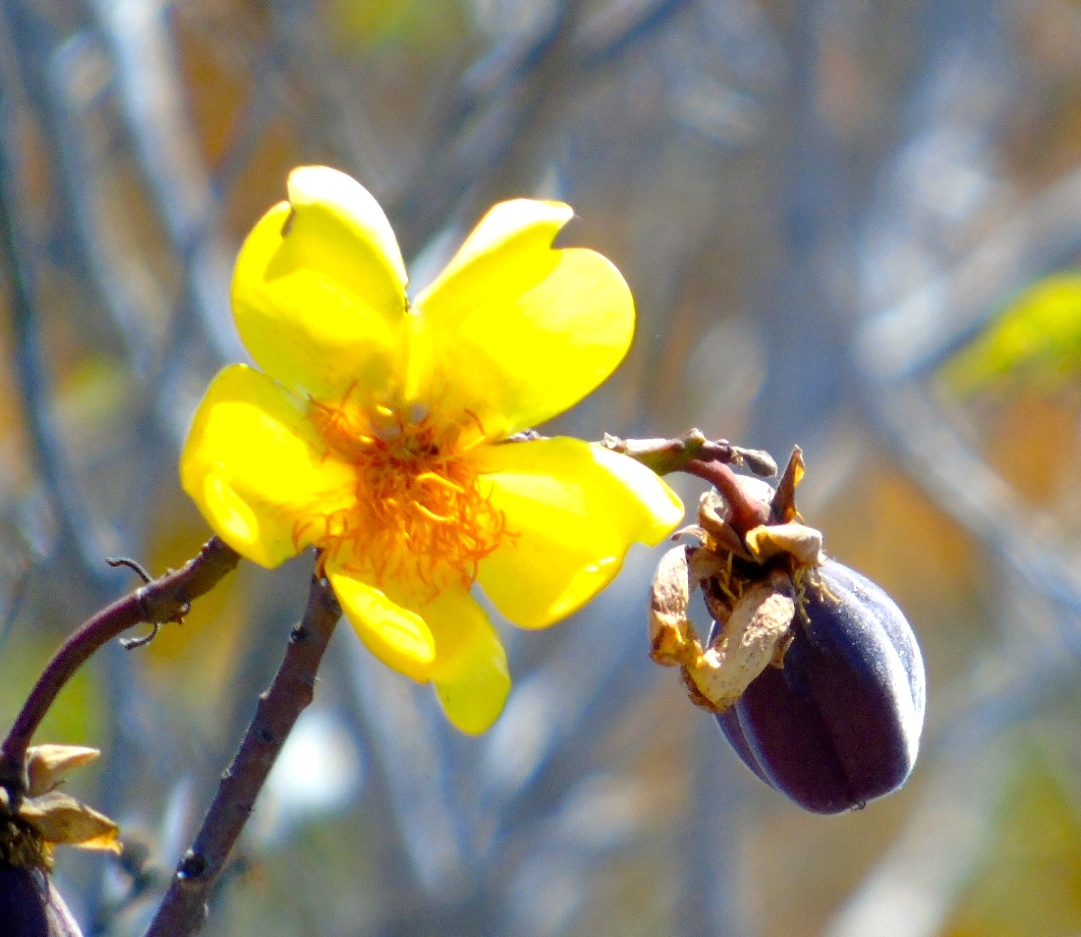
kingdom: Plantae
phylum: Tracheophyta
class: Magnoliopsida
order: Malvales
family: Cochlospermaceae
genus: Cochlospermum
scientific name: Cochlospermum vitifolium
